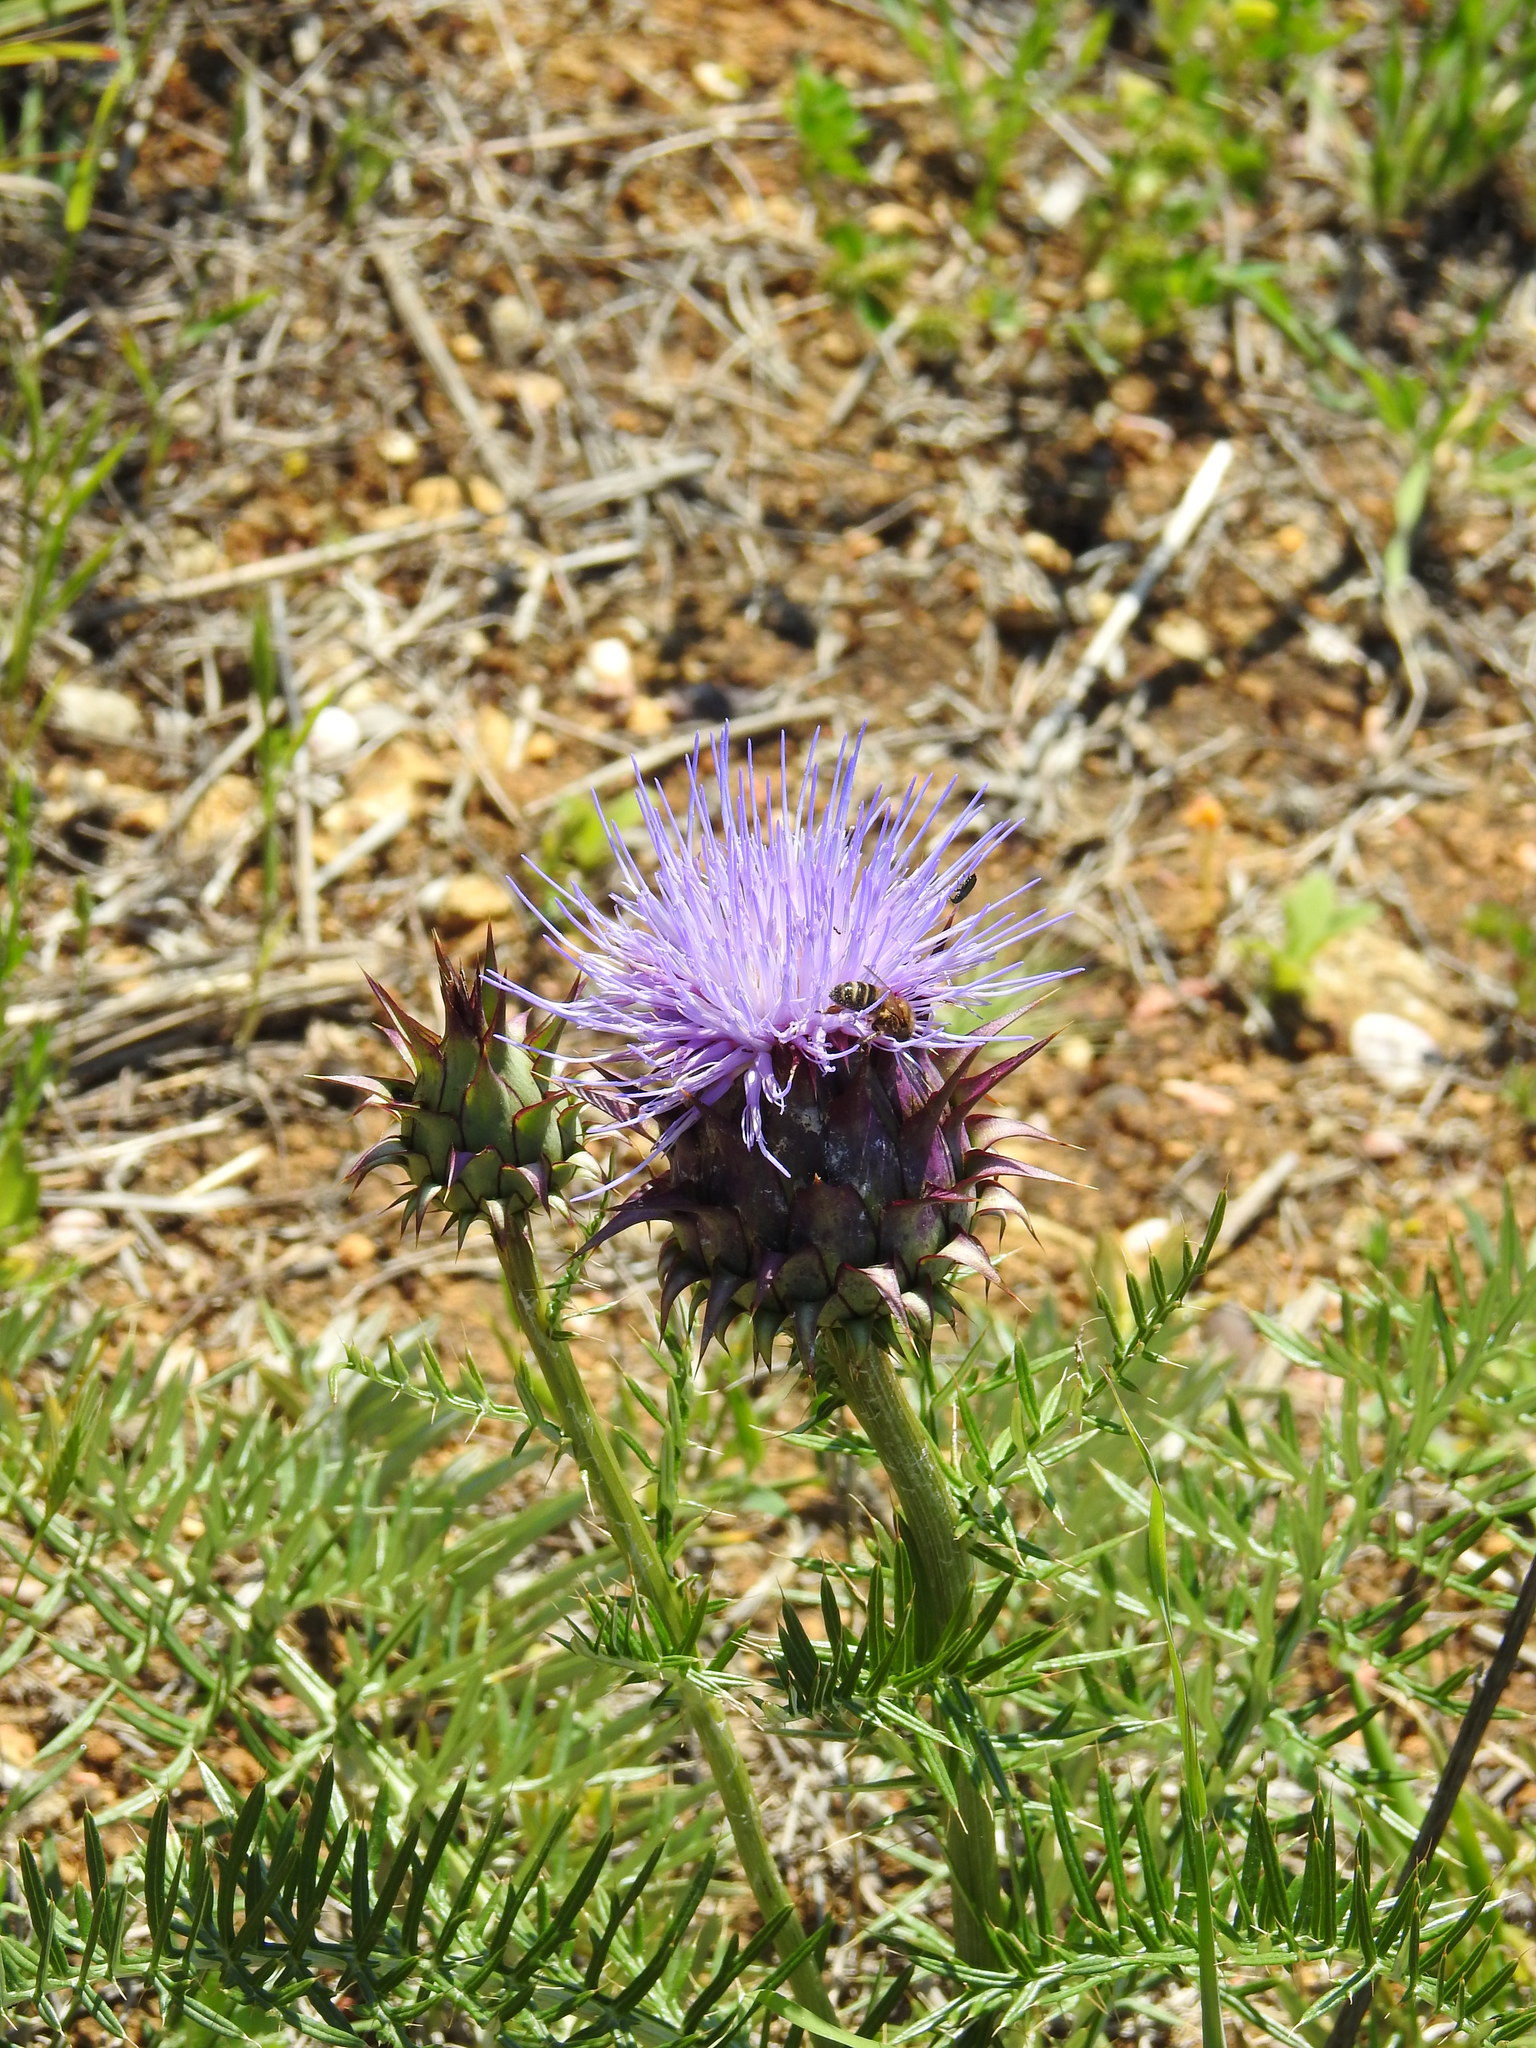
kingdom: Plantae
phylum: Tracheophyta
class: Magnoliopsida
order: Asterales
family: Asteraceae
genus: Cynara
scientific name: Cynara humilis
